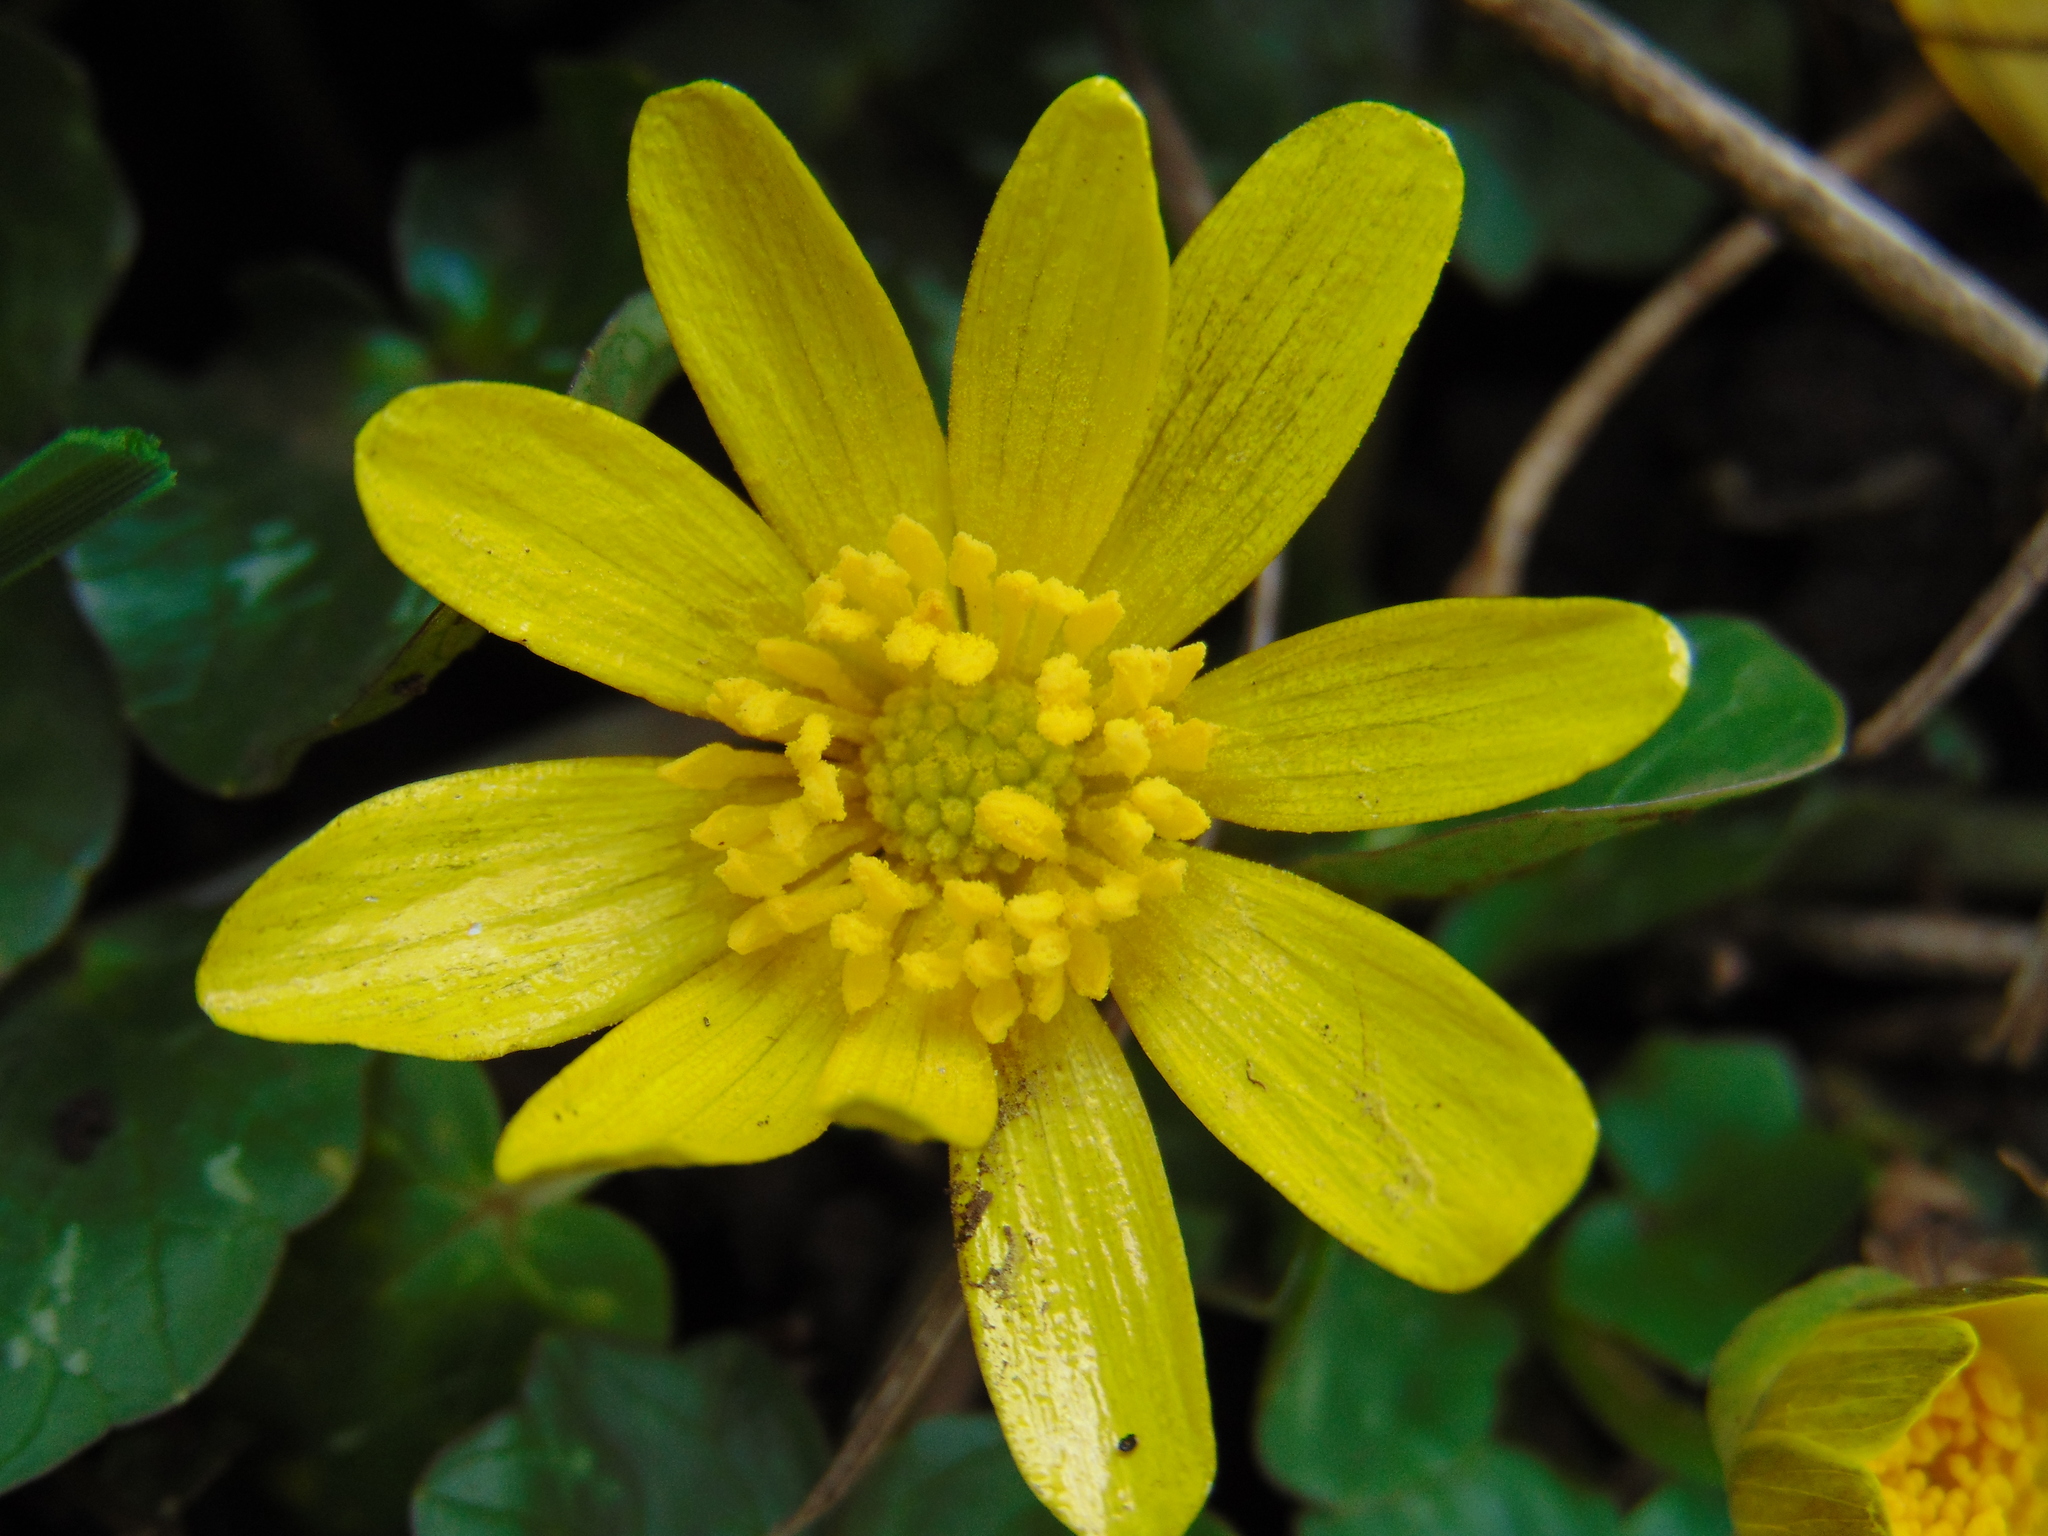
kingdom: Plantae
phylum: Tracheophyta
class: Magnoliopsida
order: Ranunculales
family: Ranunculaceae
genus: Ficaria
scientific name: Ficaria verna
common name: Lesser celandine
